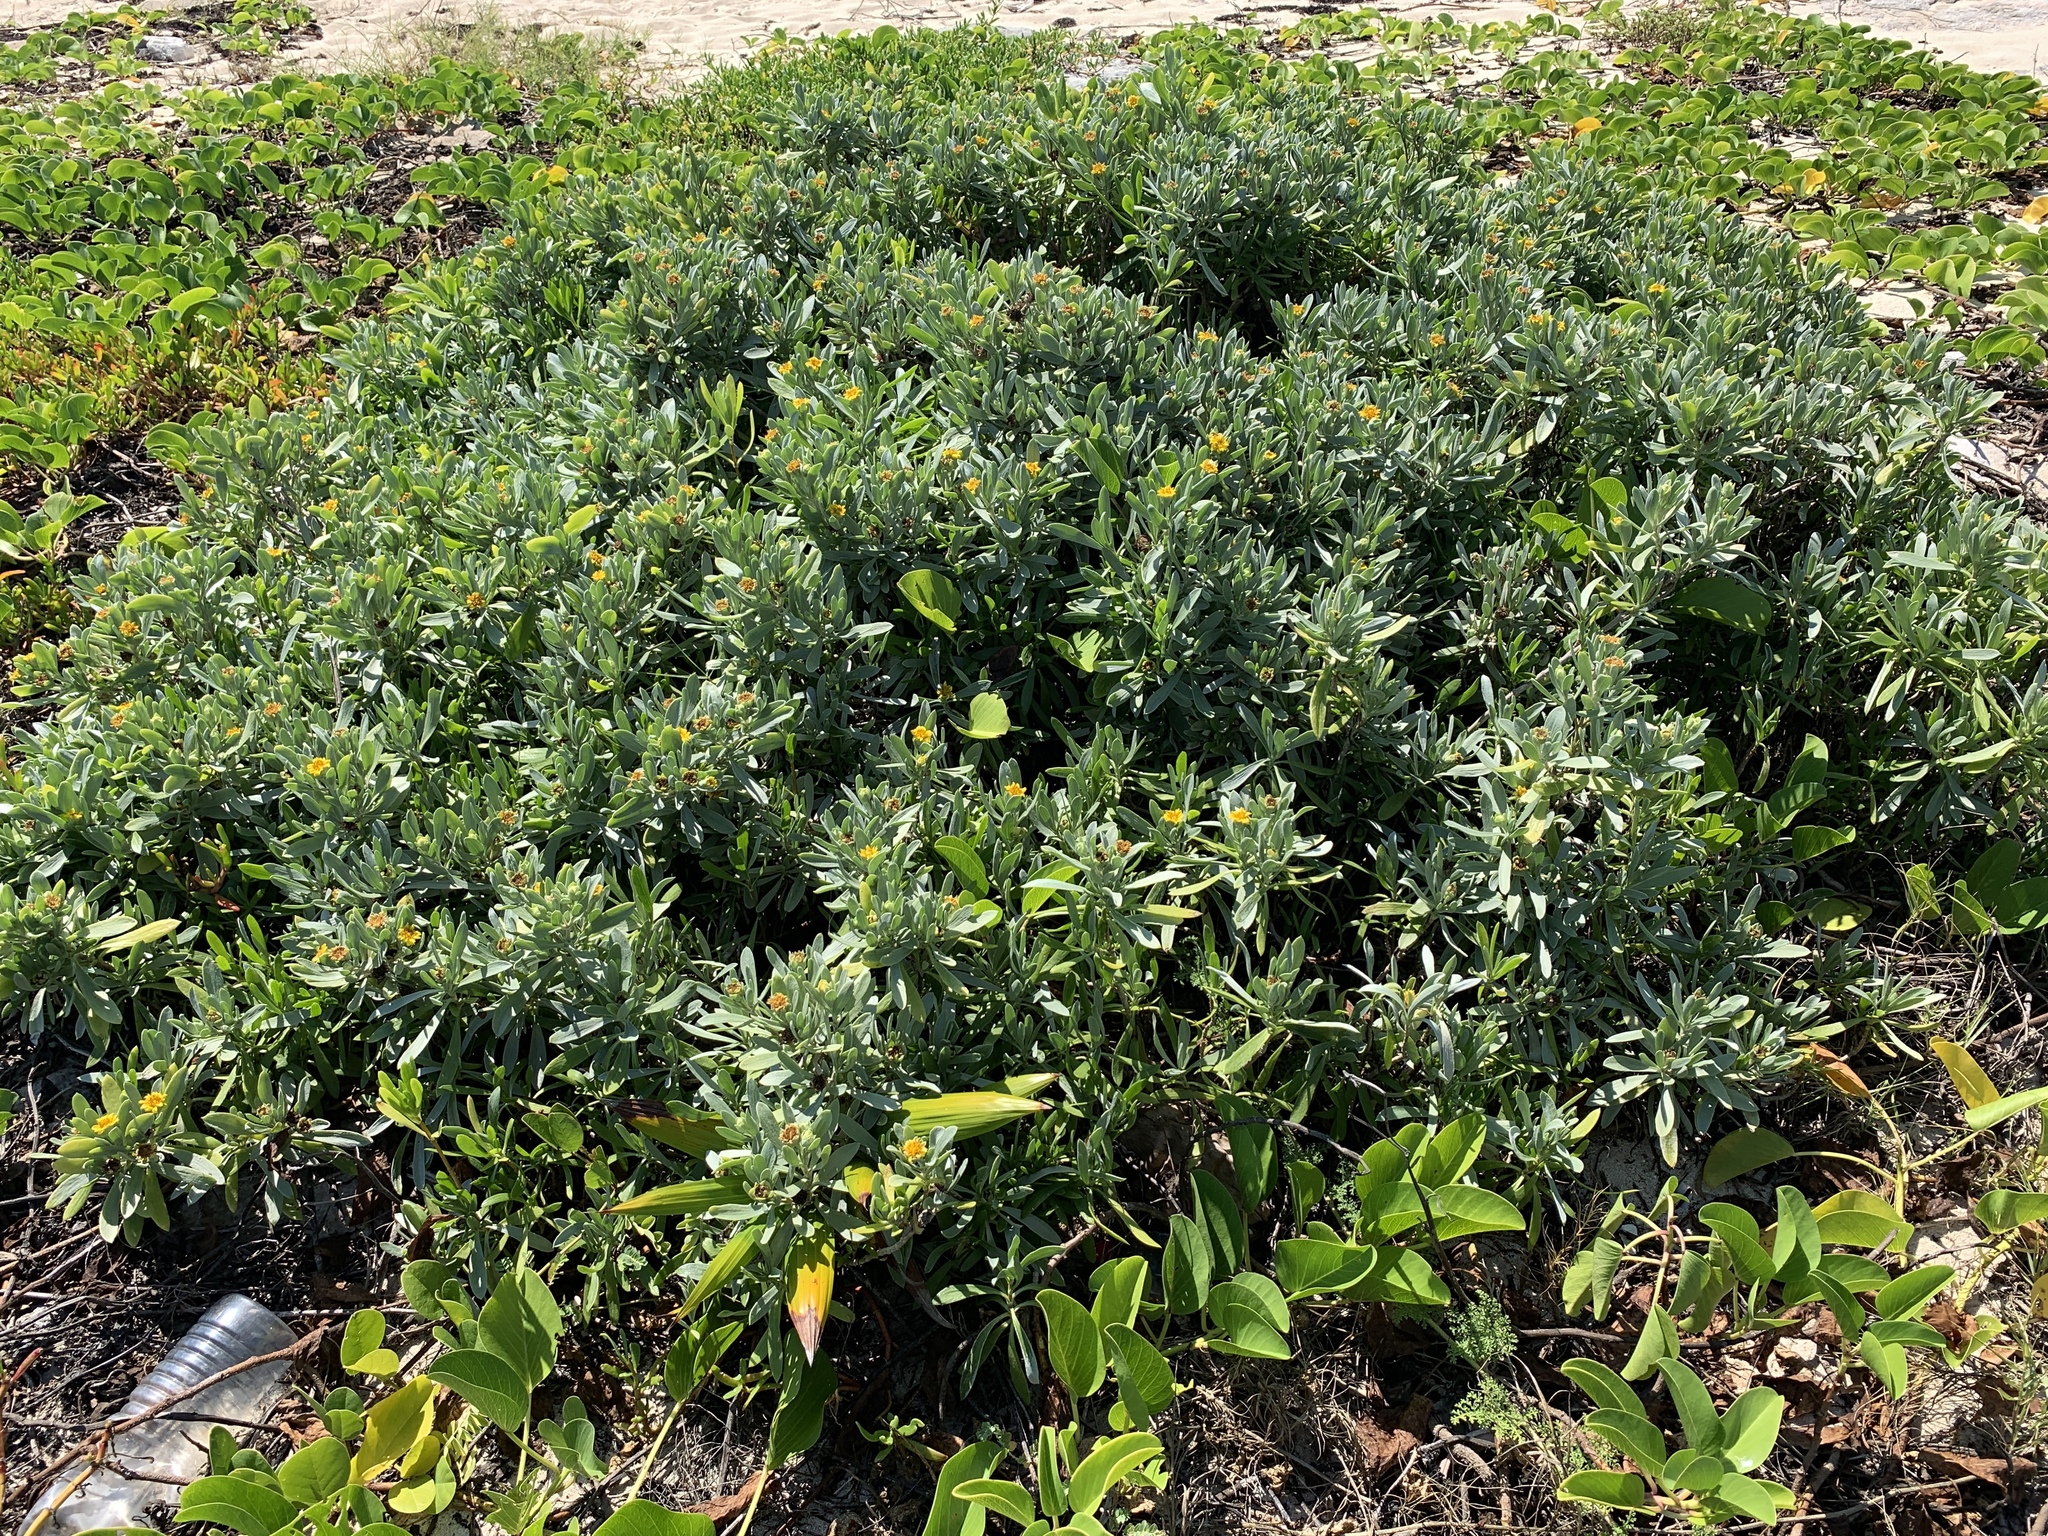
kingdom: Plantae
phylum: Tracheophyta
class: Magnoliopsida
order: Asterales
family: Asteraceae
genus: Borrichia
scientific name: Borrichia arborescens
